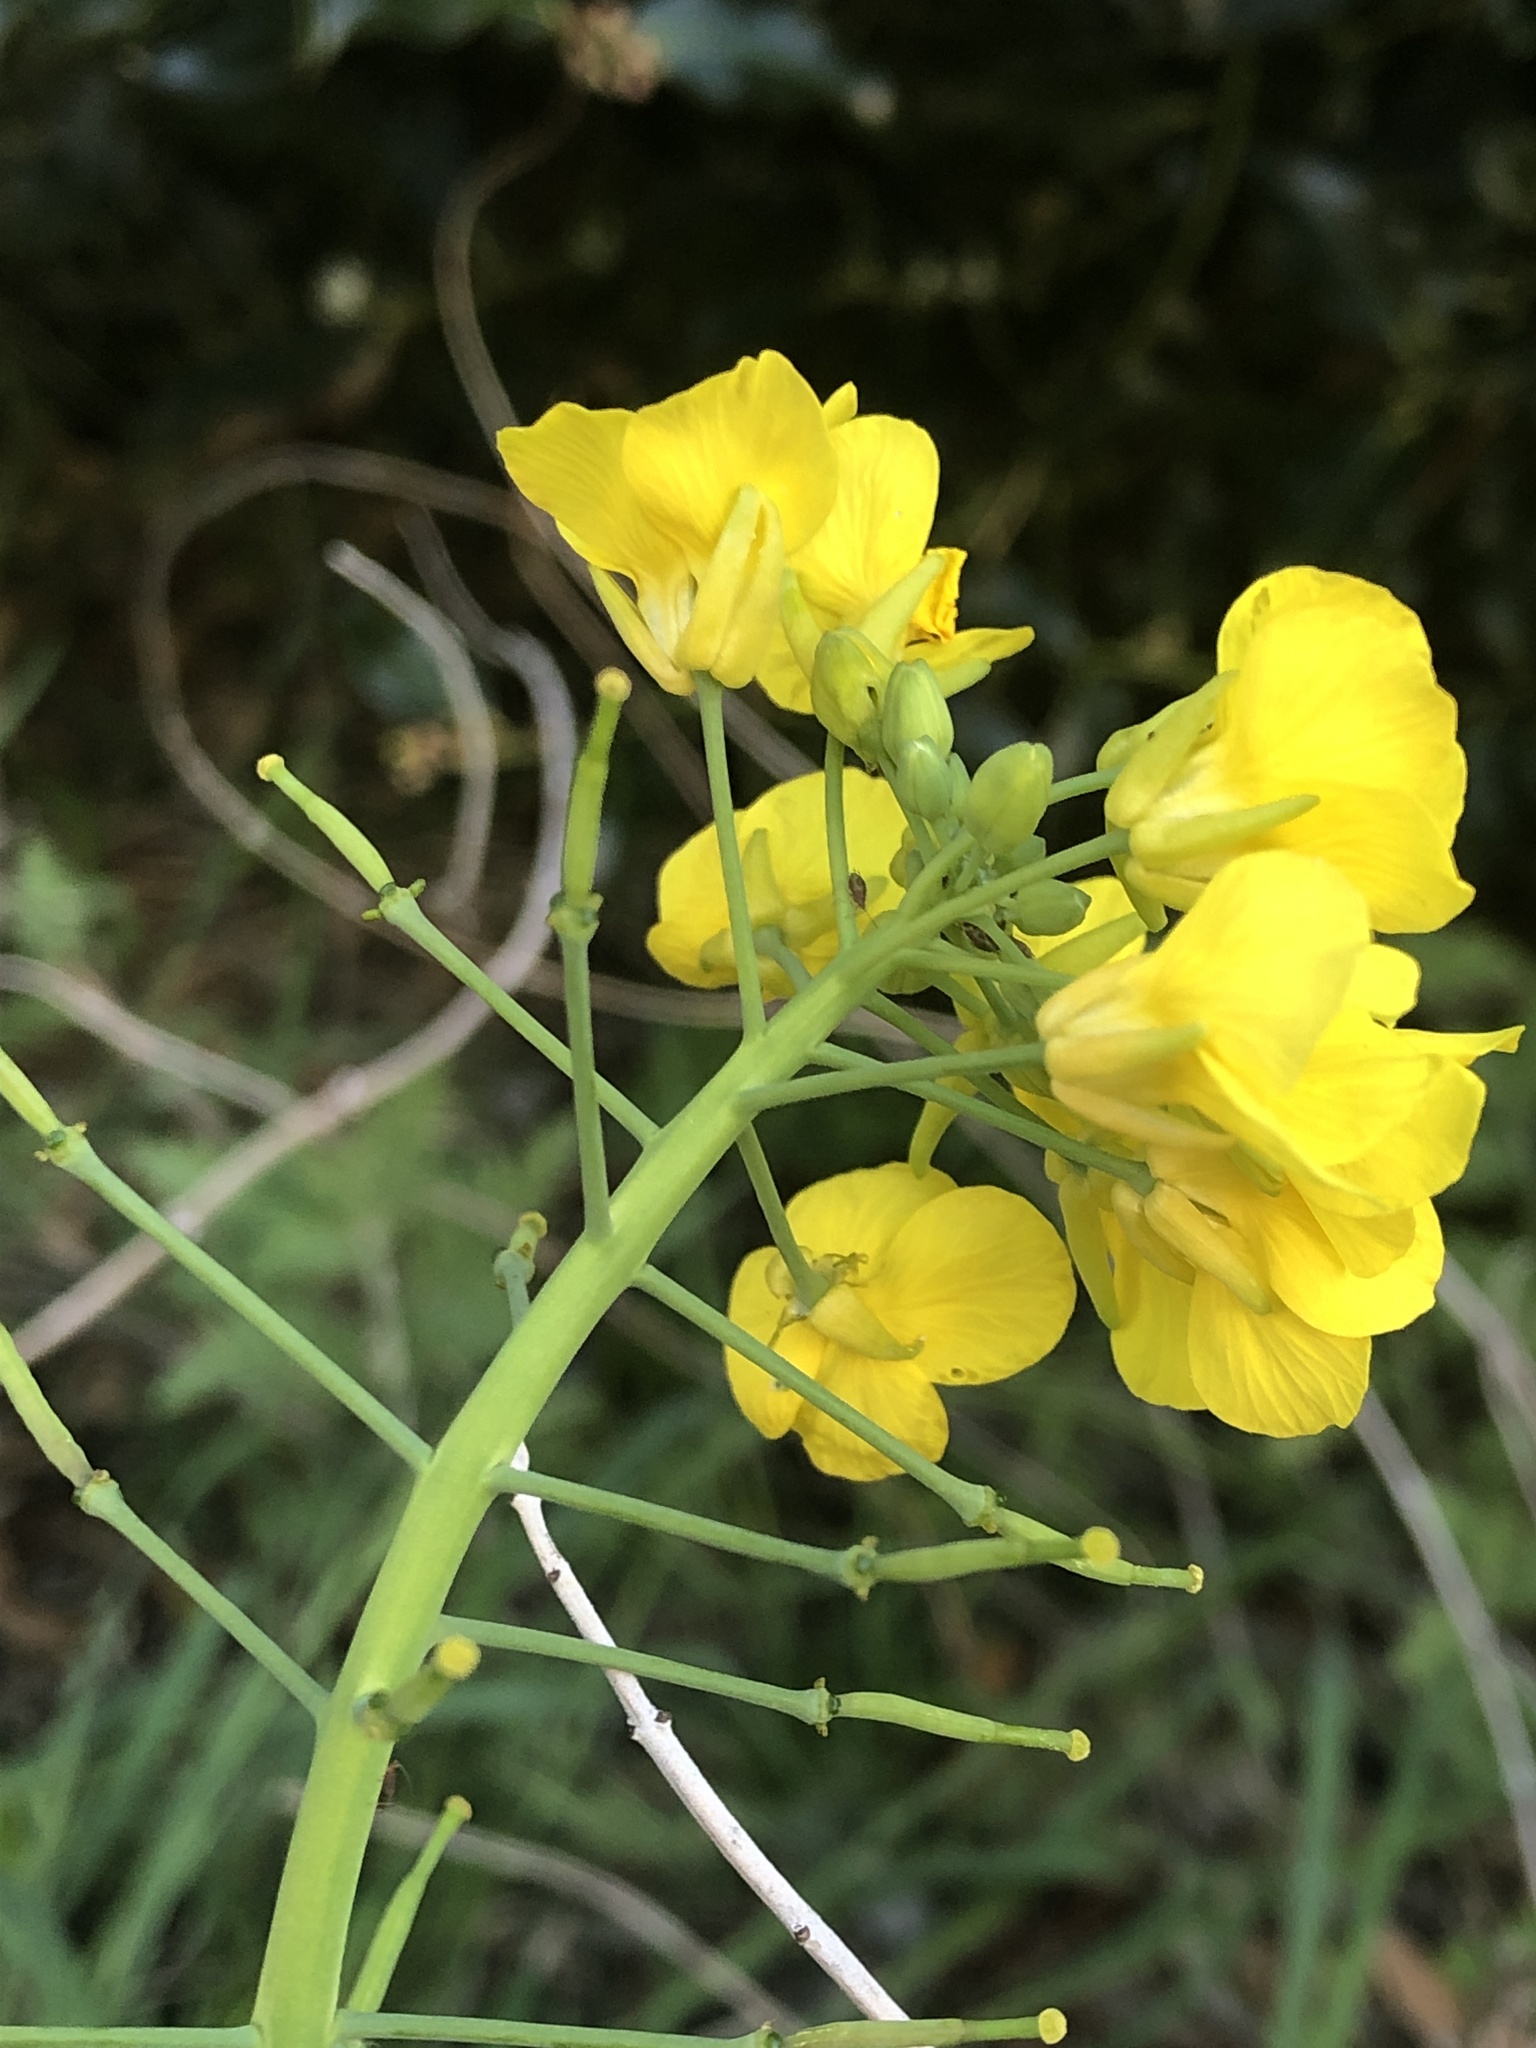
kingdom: Plantae
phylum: Tracheophyta
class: Magnoliopsida
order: Brassicales
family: Brassicaceae
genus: Brassica
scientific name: Brassica napus
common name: Rape
